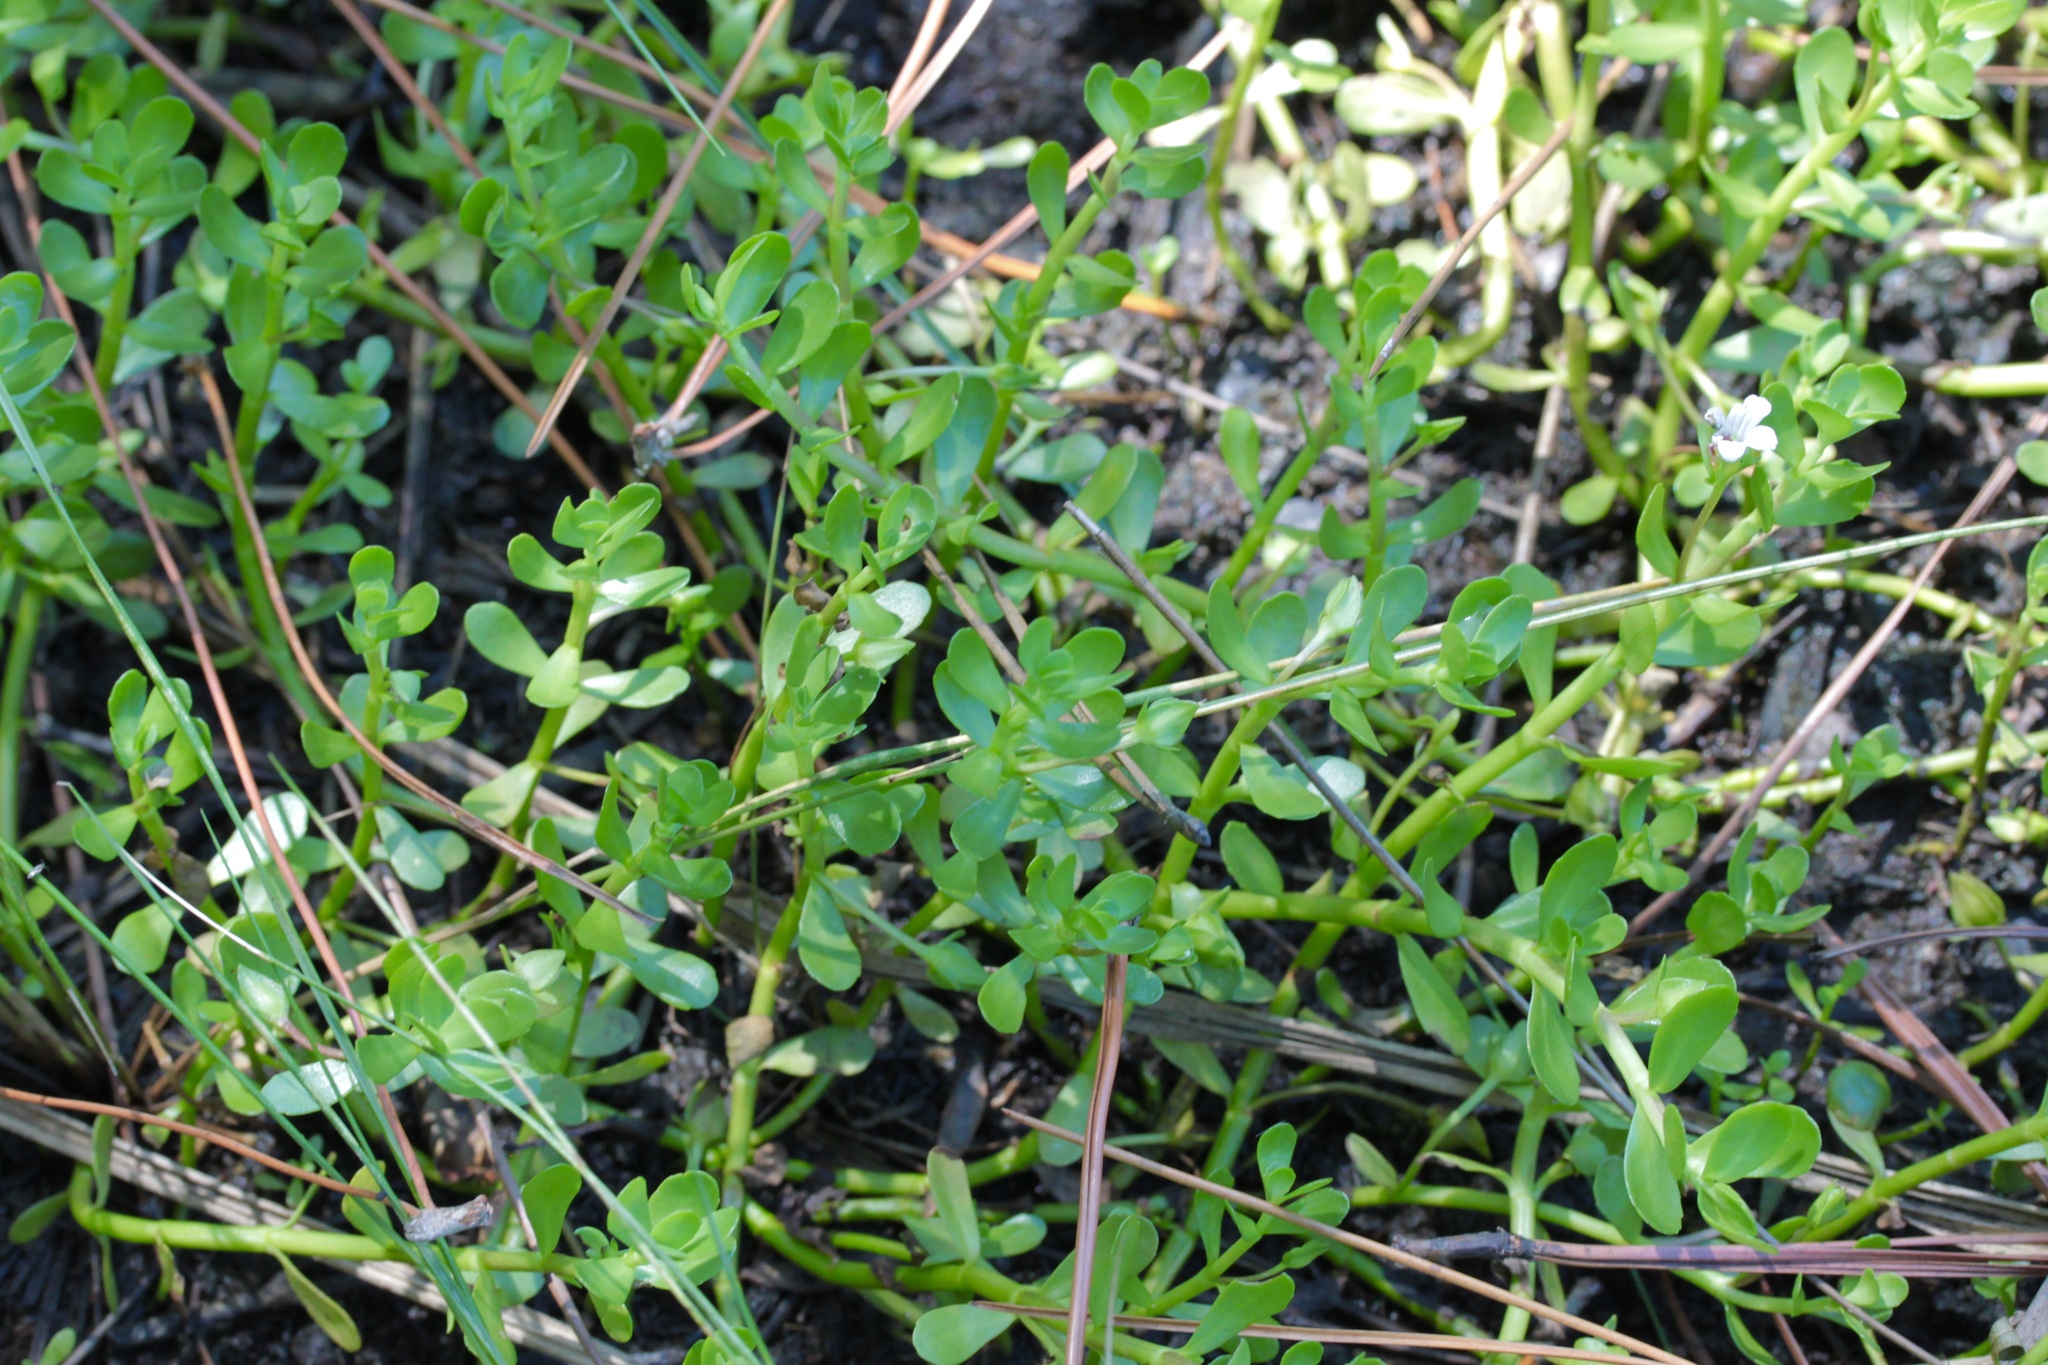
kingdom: Plantae
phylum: Tracheophyta
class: Magnoliopsida
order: Lamiales
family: Plantaginaceae
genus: Bacopa
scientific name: Bacopa monnieri
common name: Indian-pennywort
